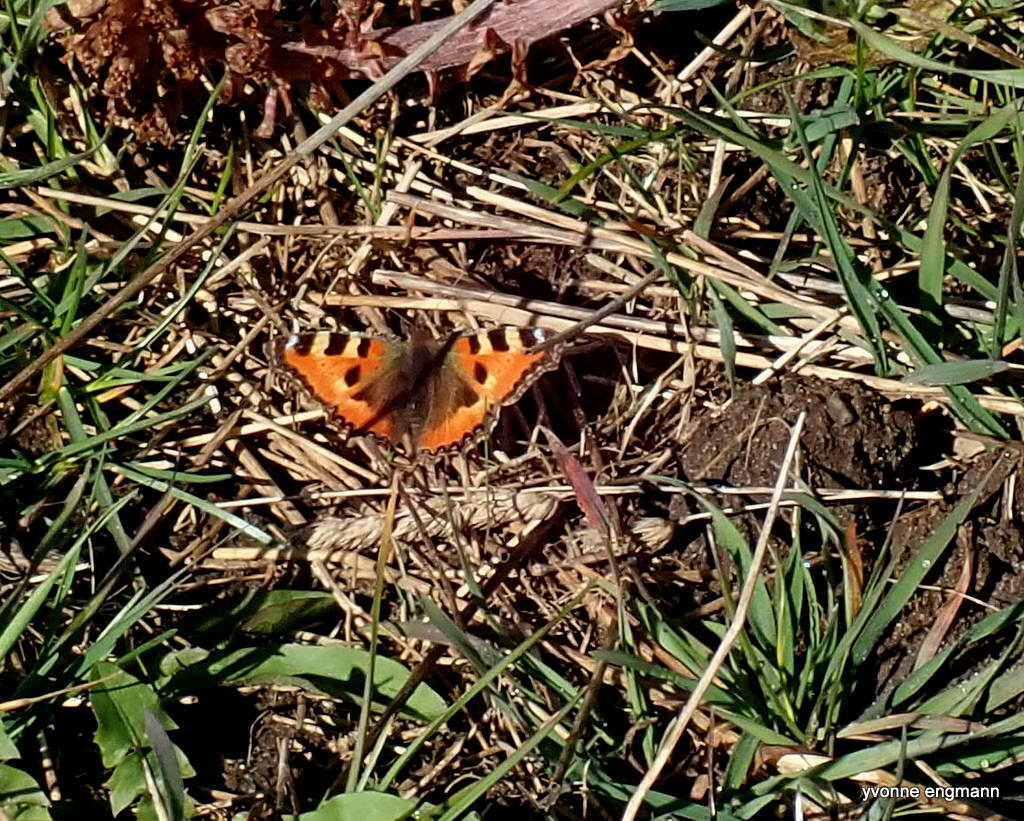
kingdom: Animalia
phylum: Arthropoda
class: Insecta
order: Lepidoptera
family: Nymphalidae
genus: Aglais
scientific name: Aglais urticae
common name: Small tortoiseshell
